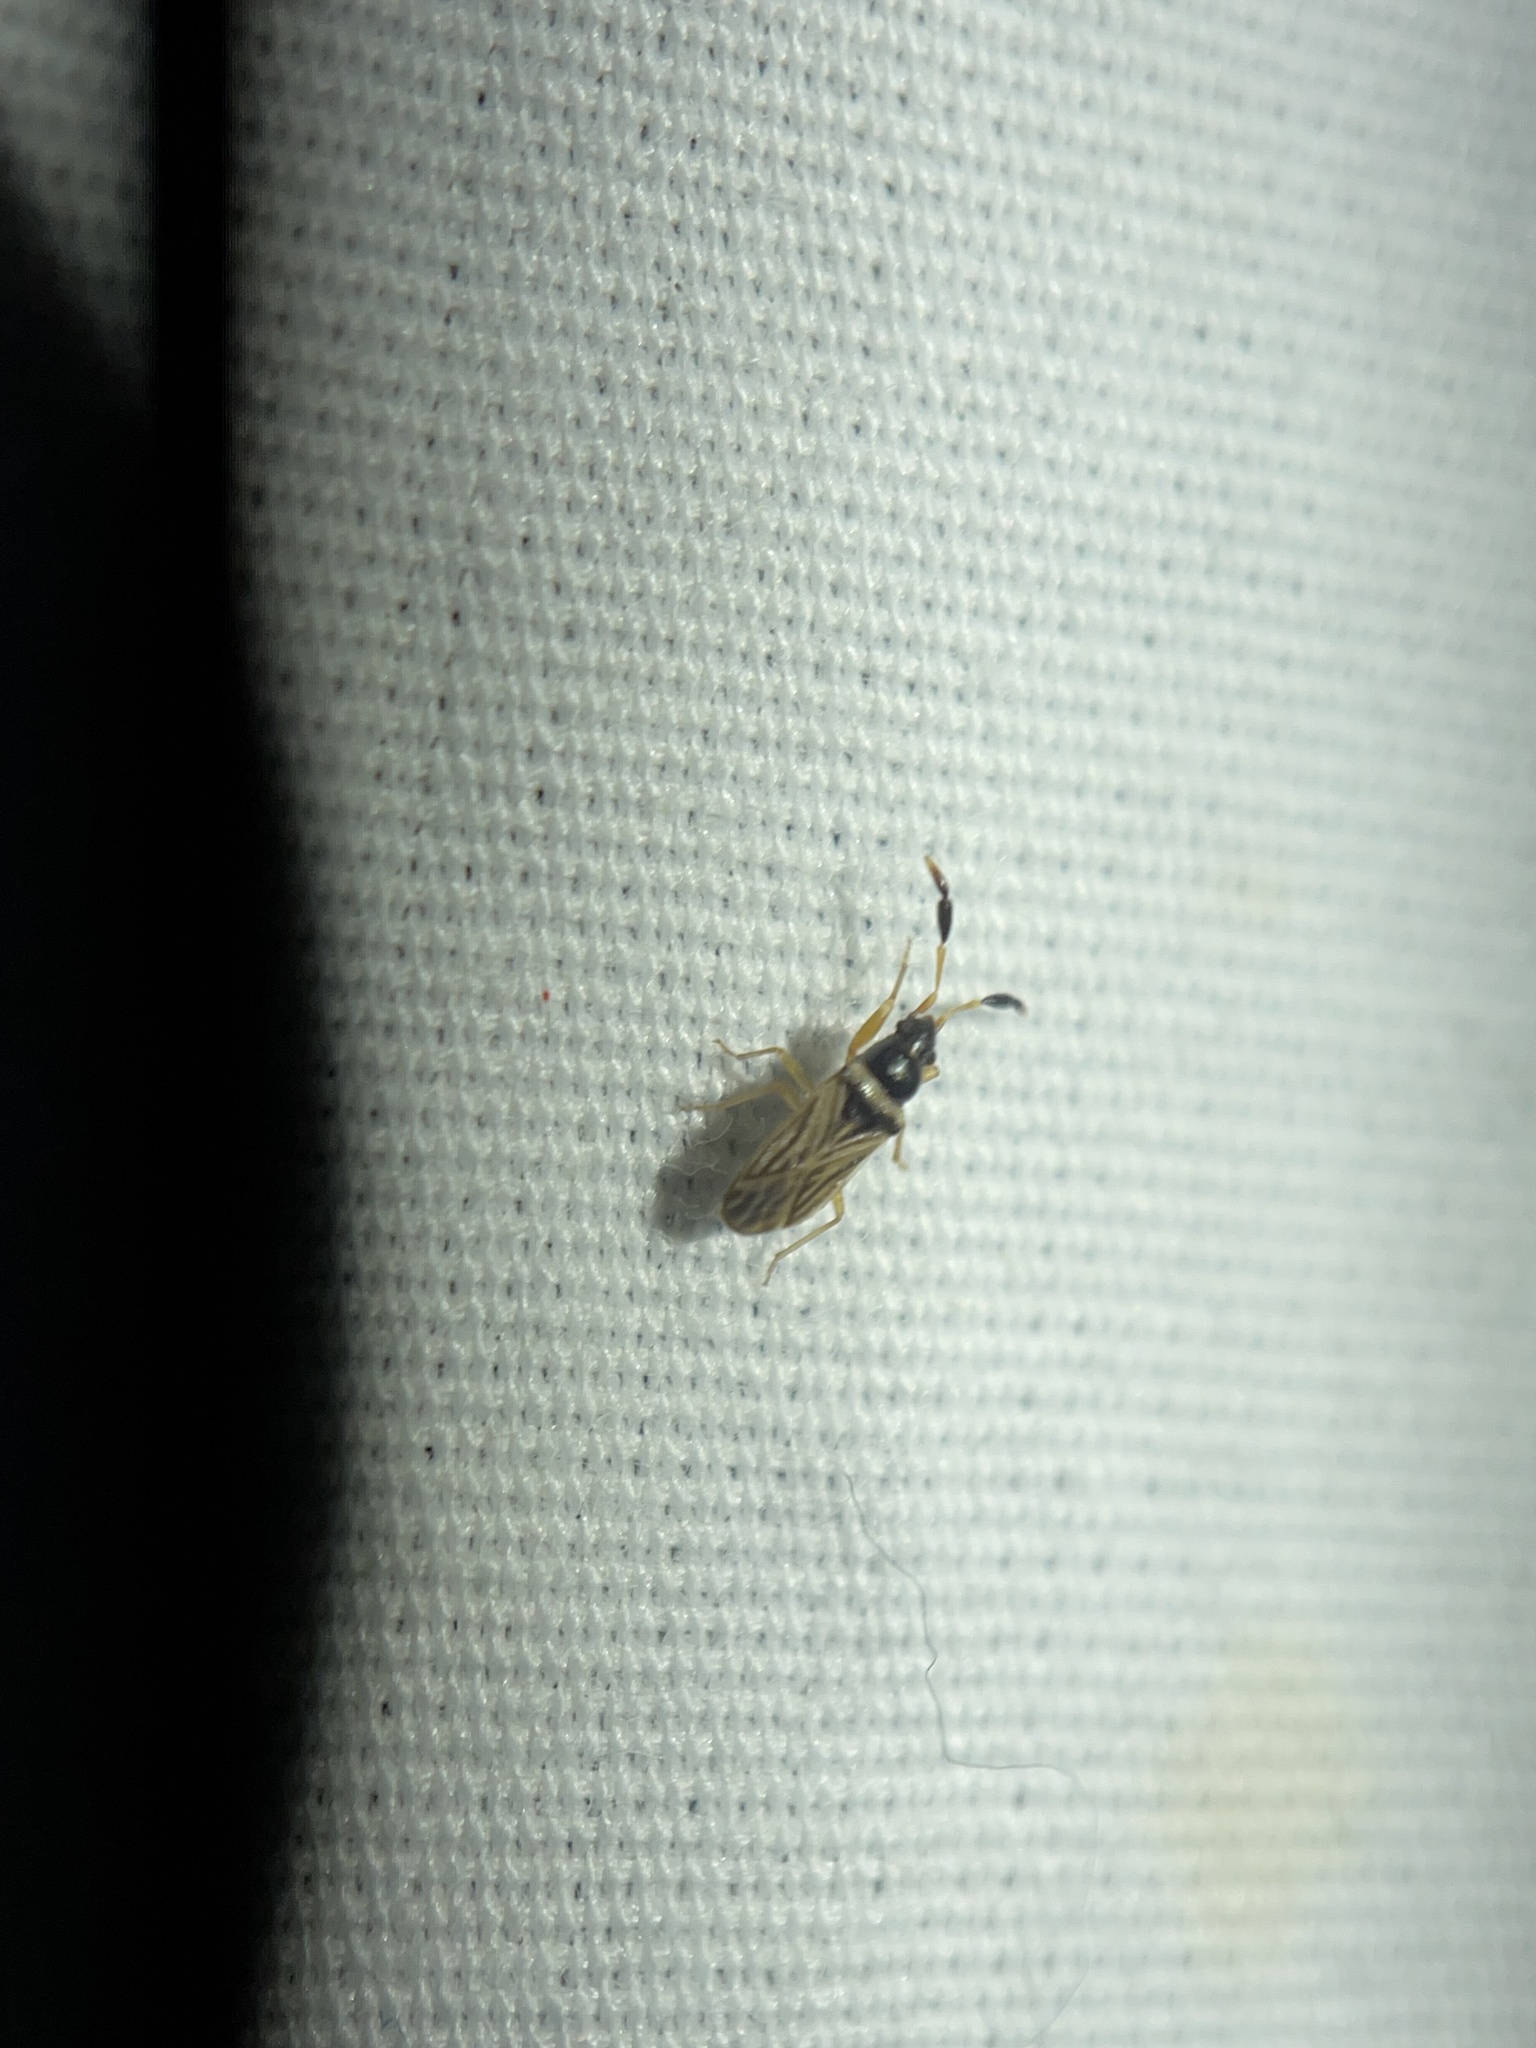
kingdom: Animalia
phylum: Arthropoda
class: Insecta
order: Hemiptera
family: Rhyparochromidae
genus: Ptochiomera
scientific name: Ptochiomera nodosa
